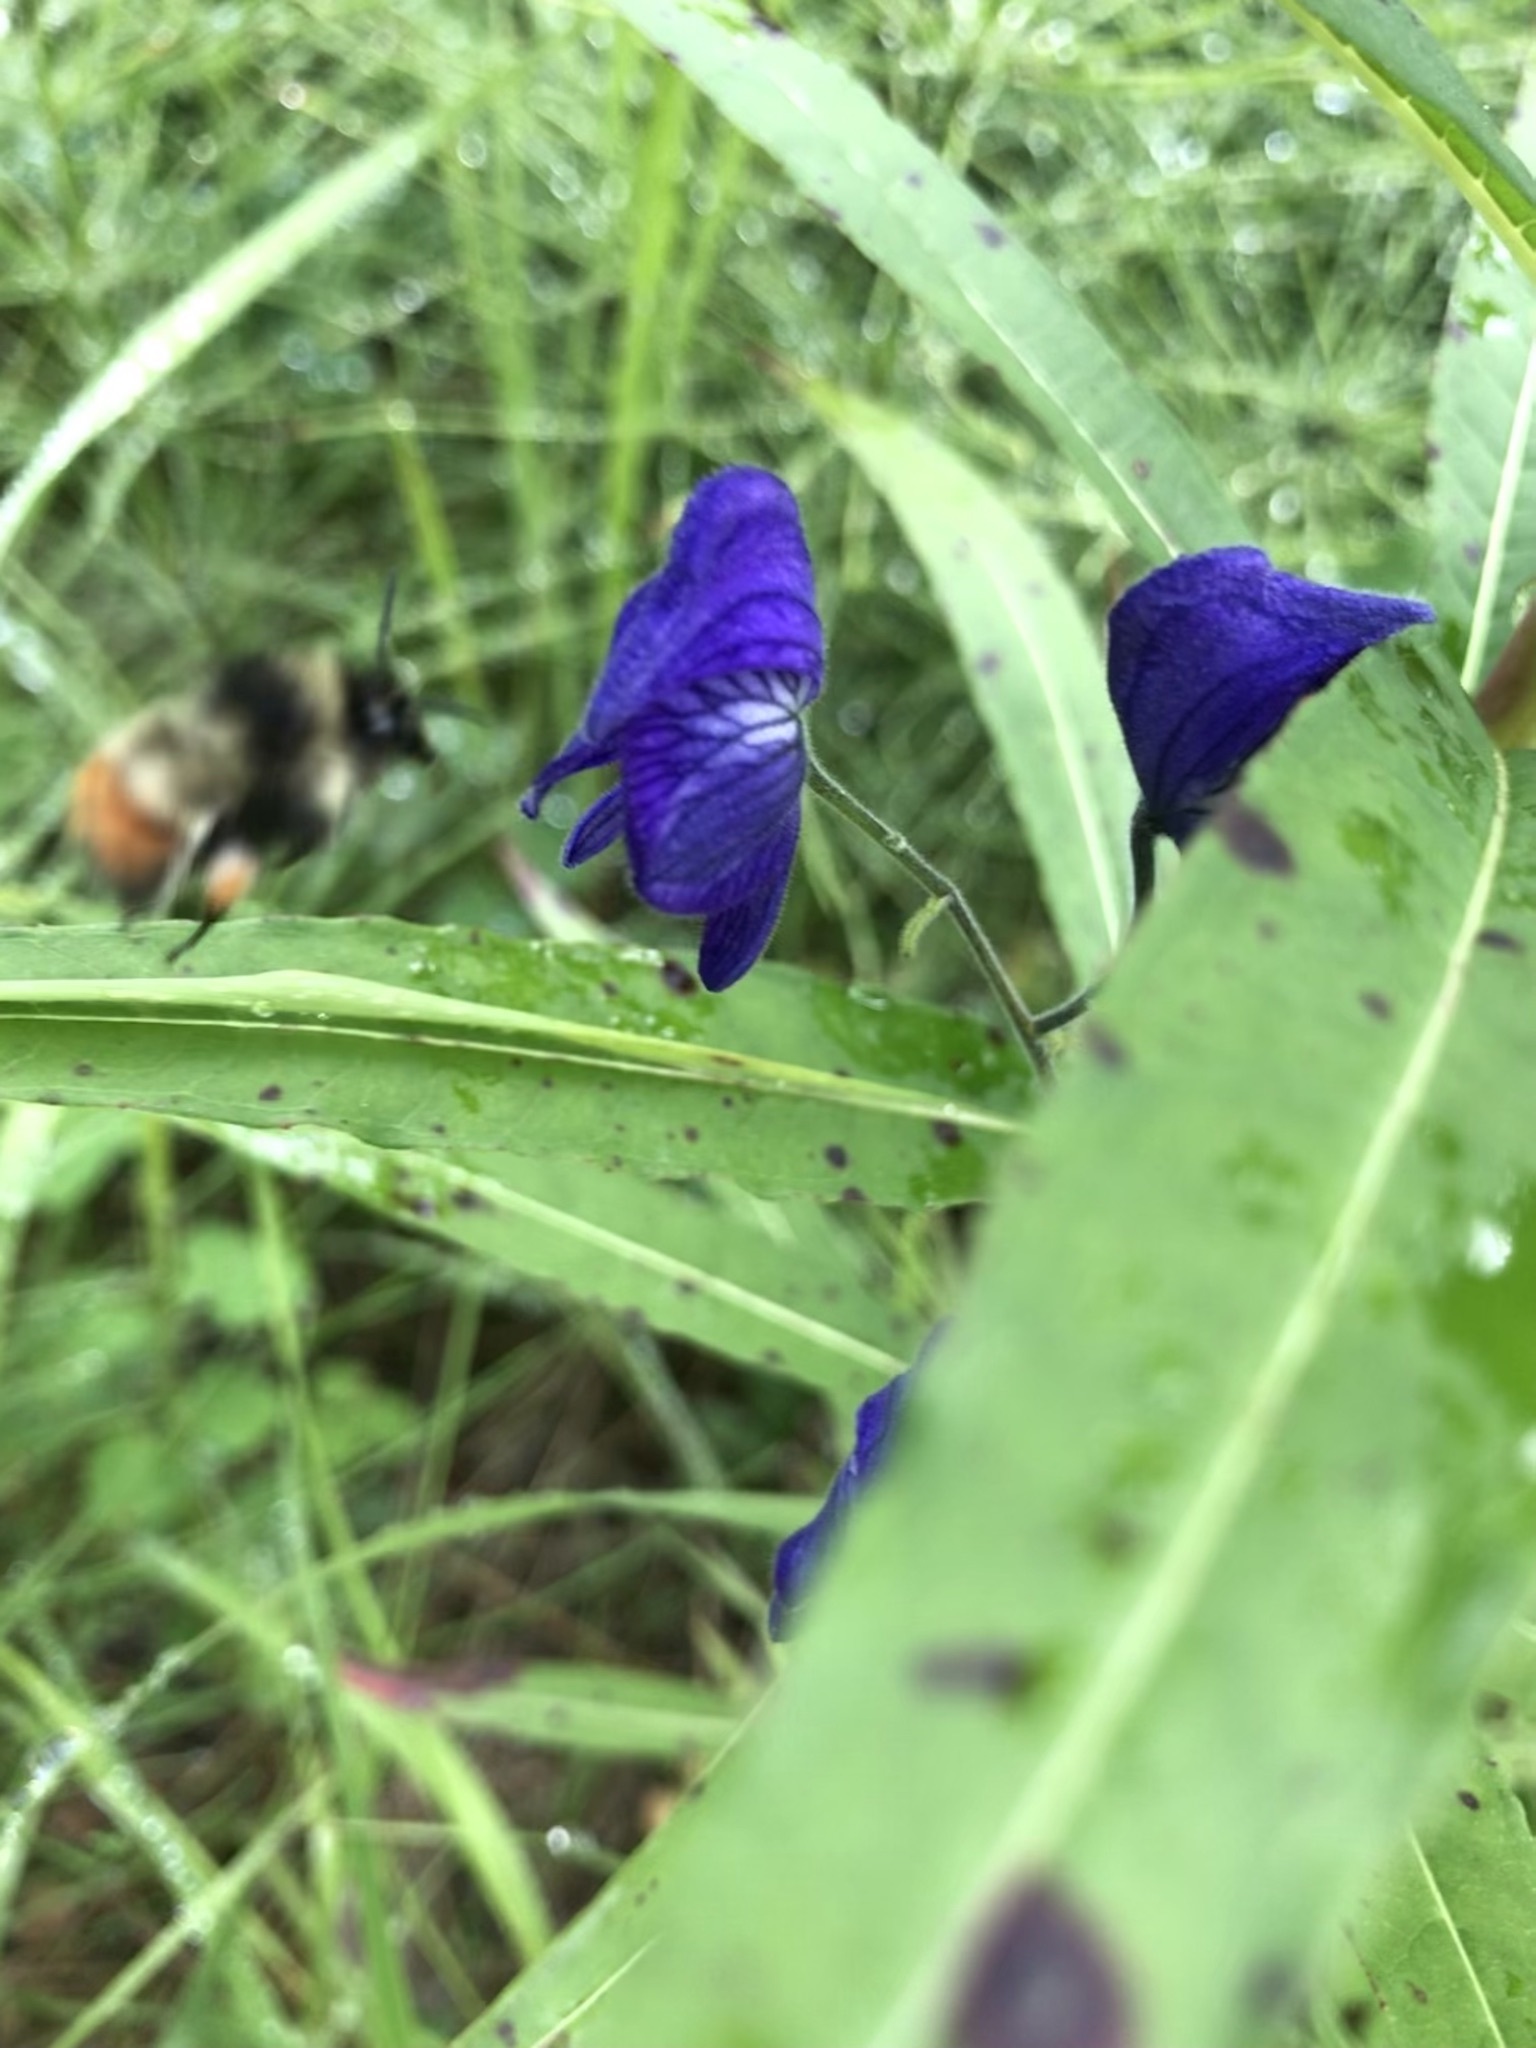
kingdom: Plantae
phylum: Tracheophyta
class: Magnoliopsida
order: Ranunculales
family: Ranunculaceae
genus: Aconitum
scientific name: Aconitum delphiniifolium
